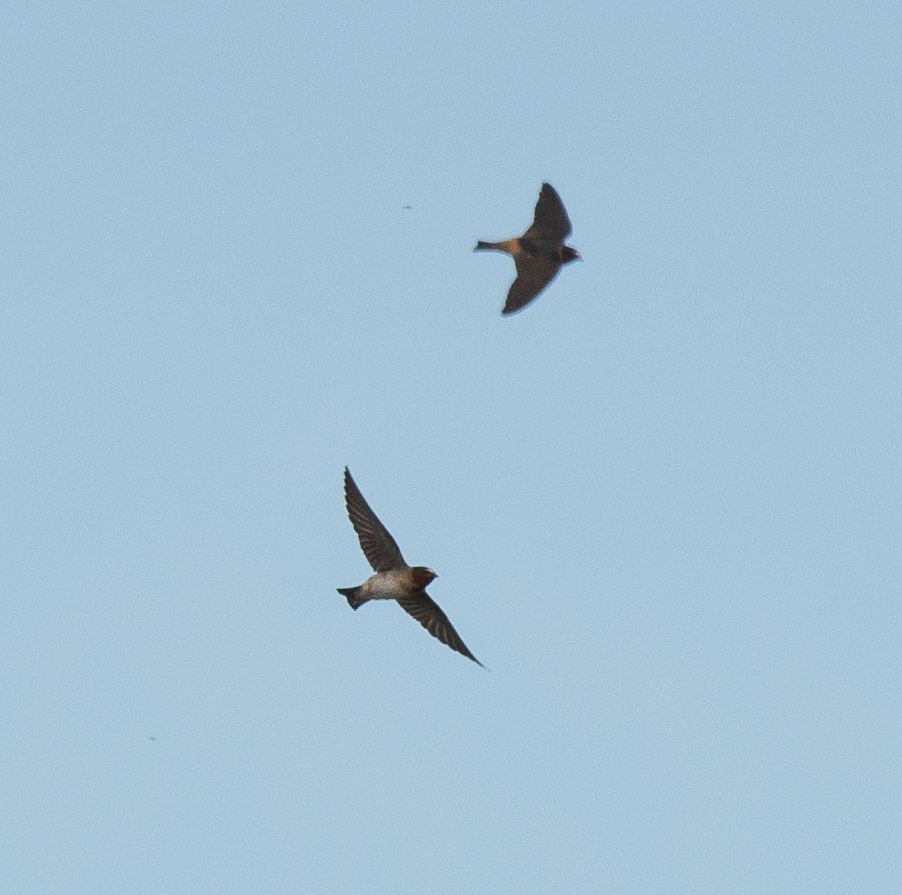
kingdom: Animalia
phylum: Chordata
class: Aves
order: Passeriformes
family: Hirundinidae
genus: Petrochelidon
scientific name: Petrochelidon pyrrhonota
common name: American cliff swallow
